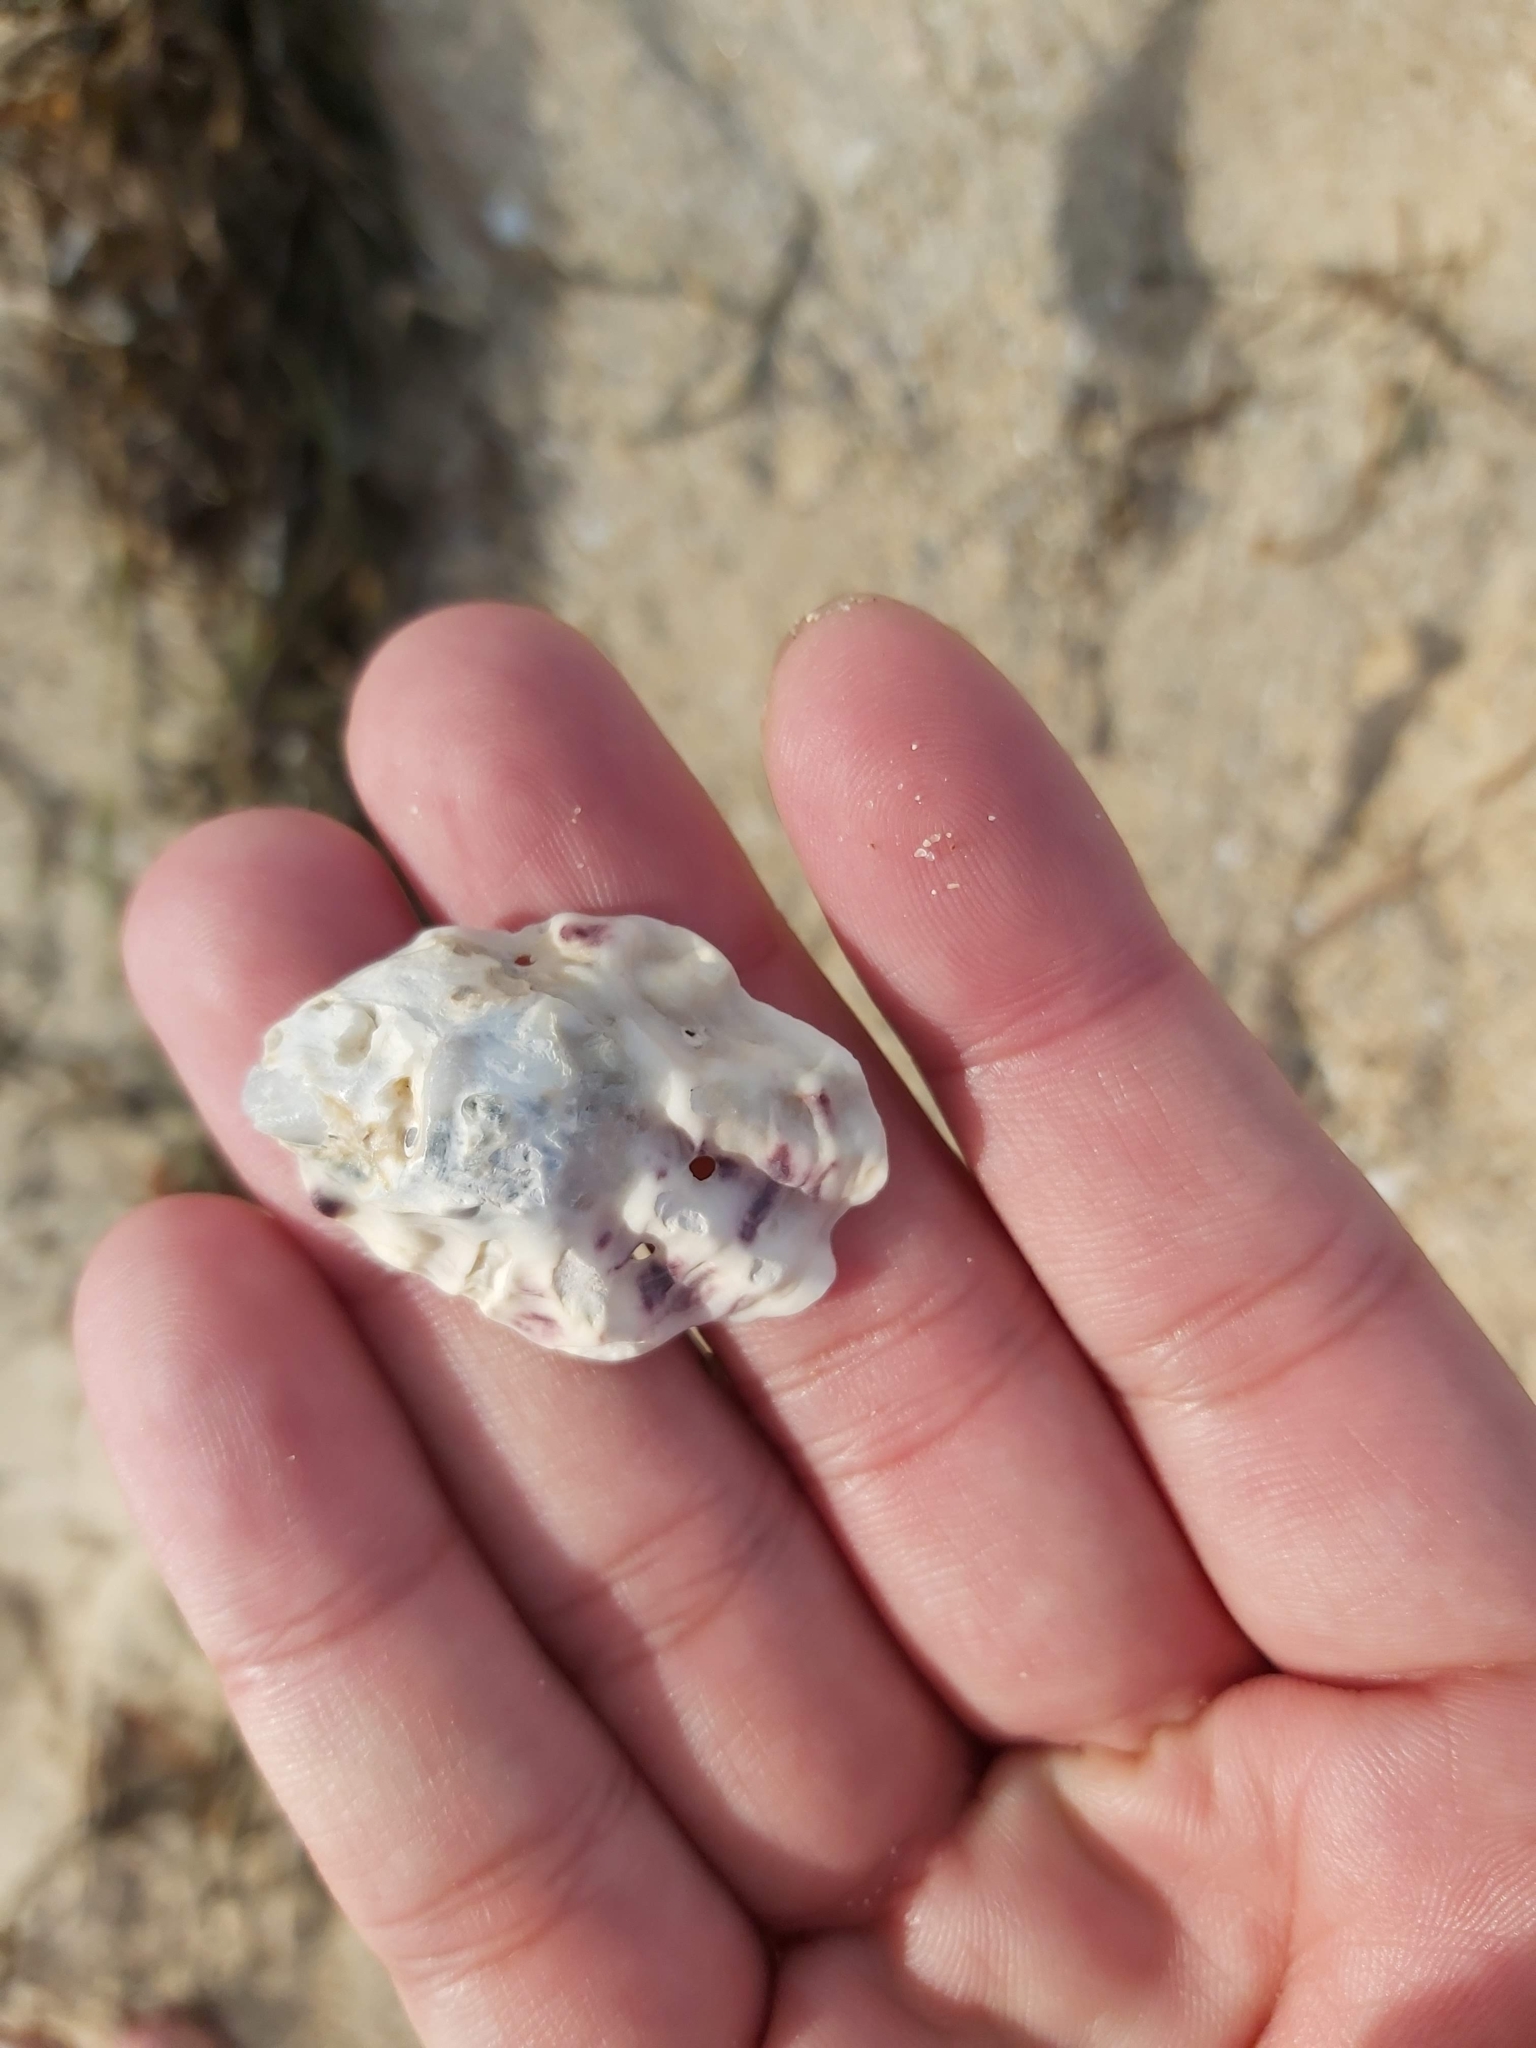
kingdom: Animalia
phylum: Mollusca
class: Bivalvia
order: Ostreida
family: Ostreidae
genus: Saccostrea
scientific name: Saccostrea glomerata
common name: Sydney cupped oyster
